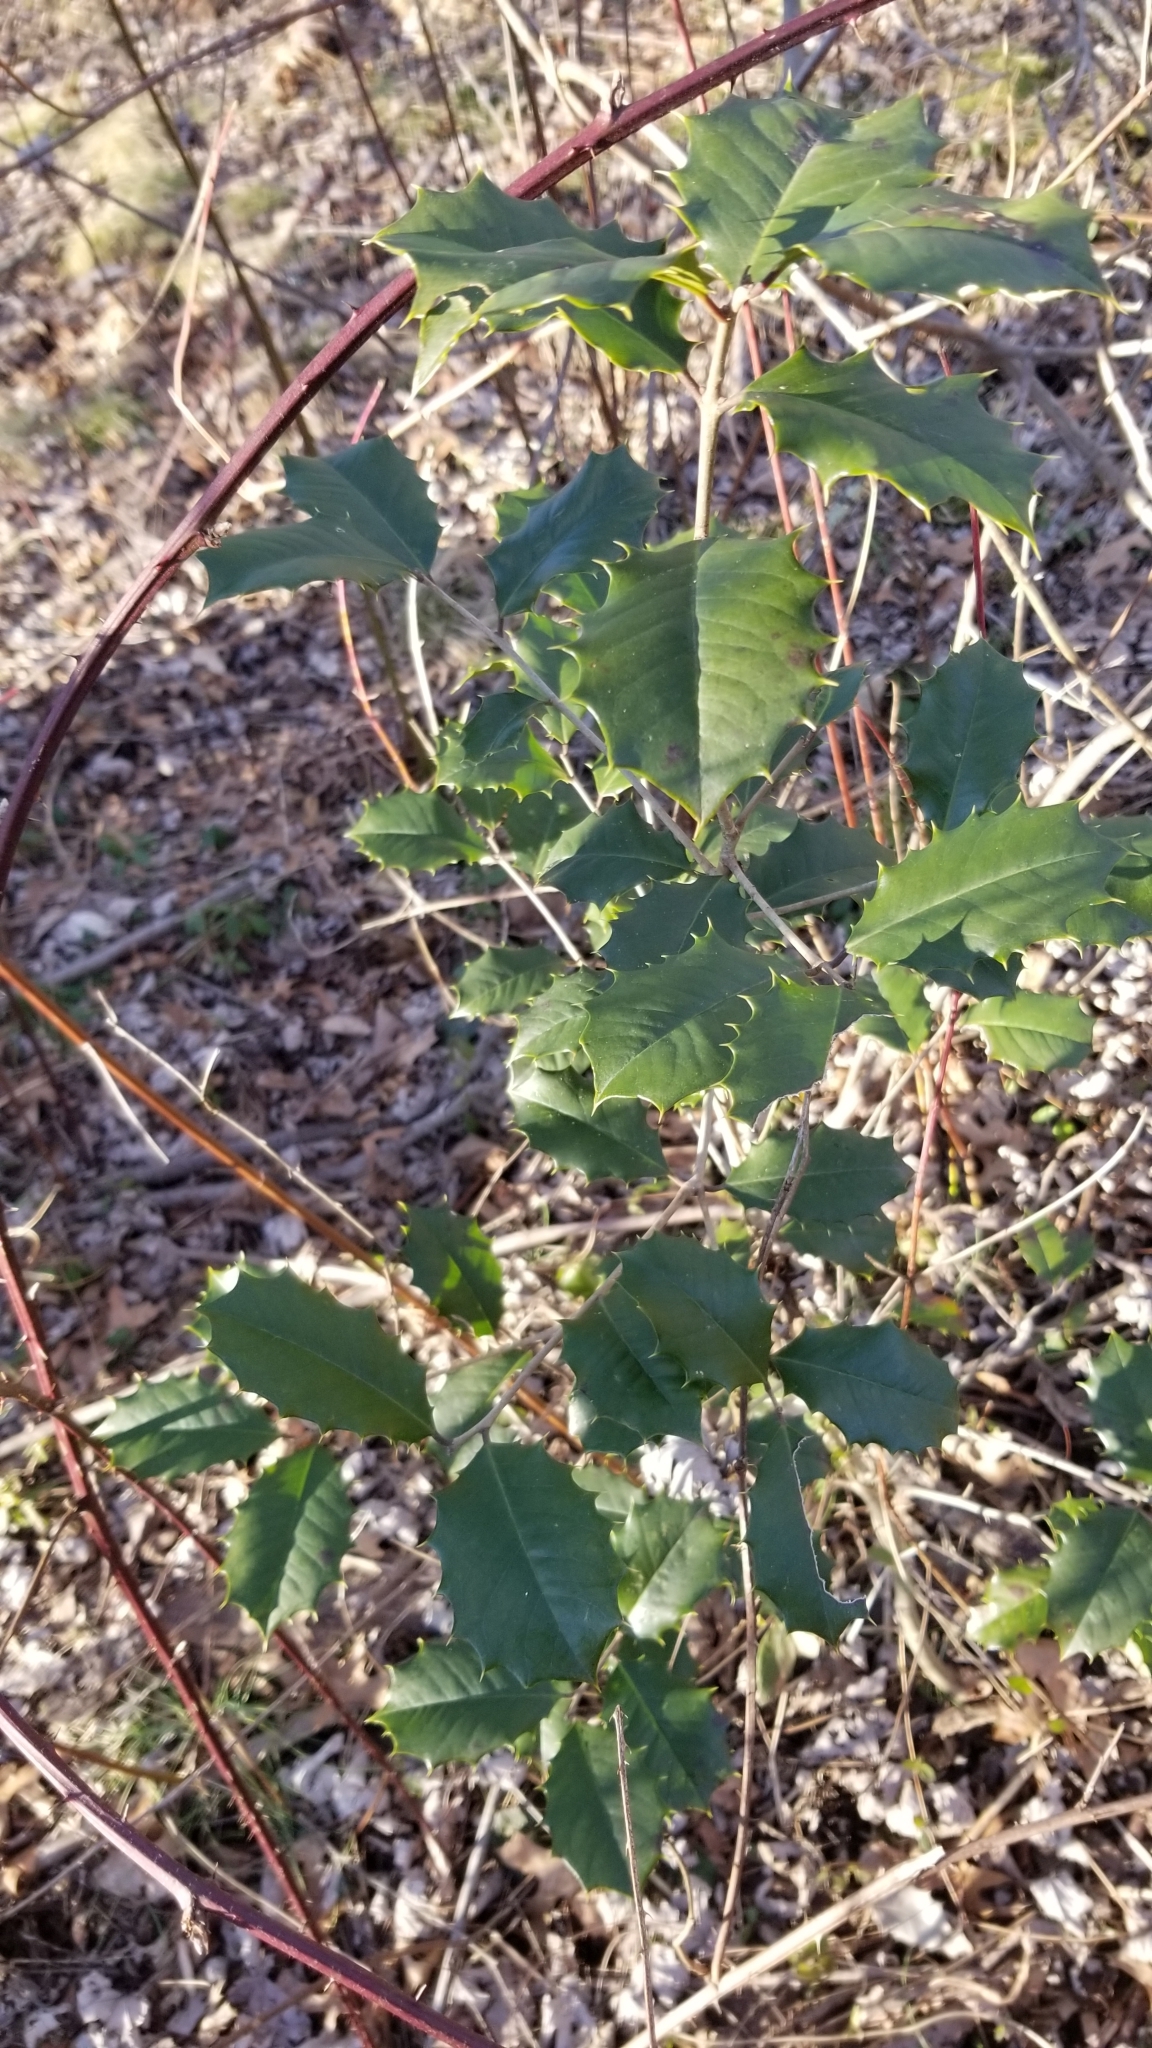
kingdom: Plantae
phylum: Tracheophyta
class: Magnoliopsida
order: Aquifoliales
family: Aquifoliaceae
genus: Ilex
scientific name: Ilex opaca
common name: American holly
